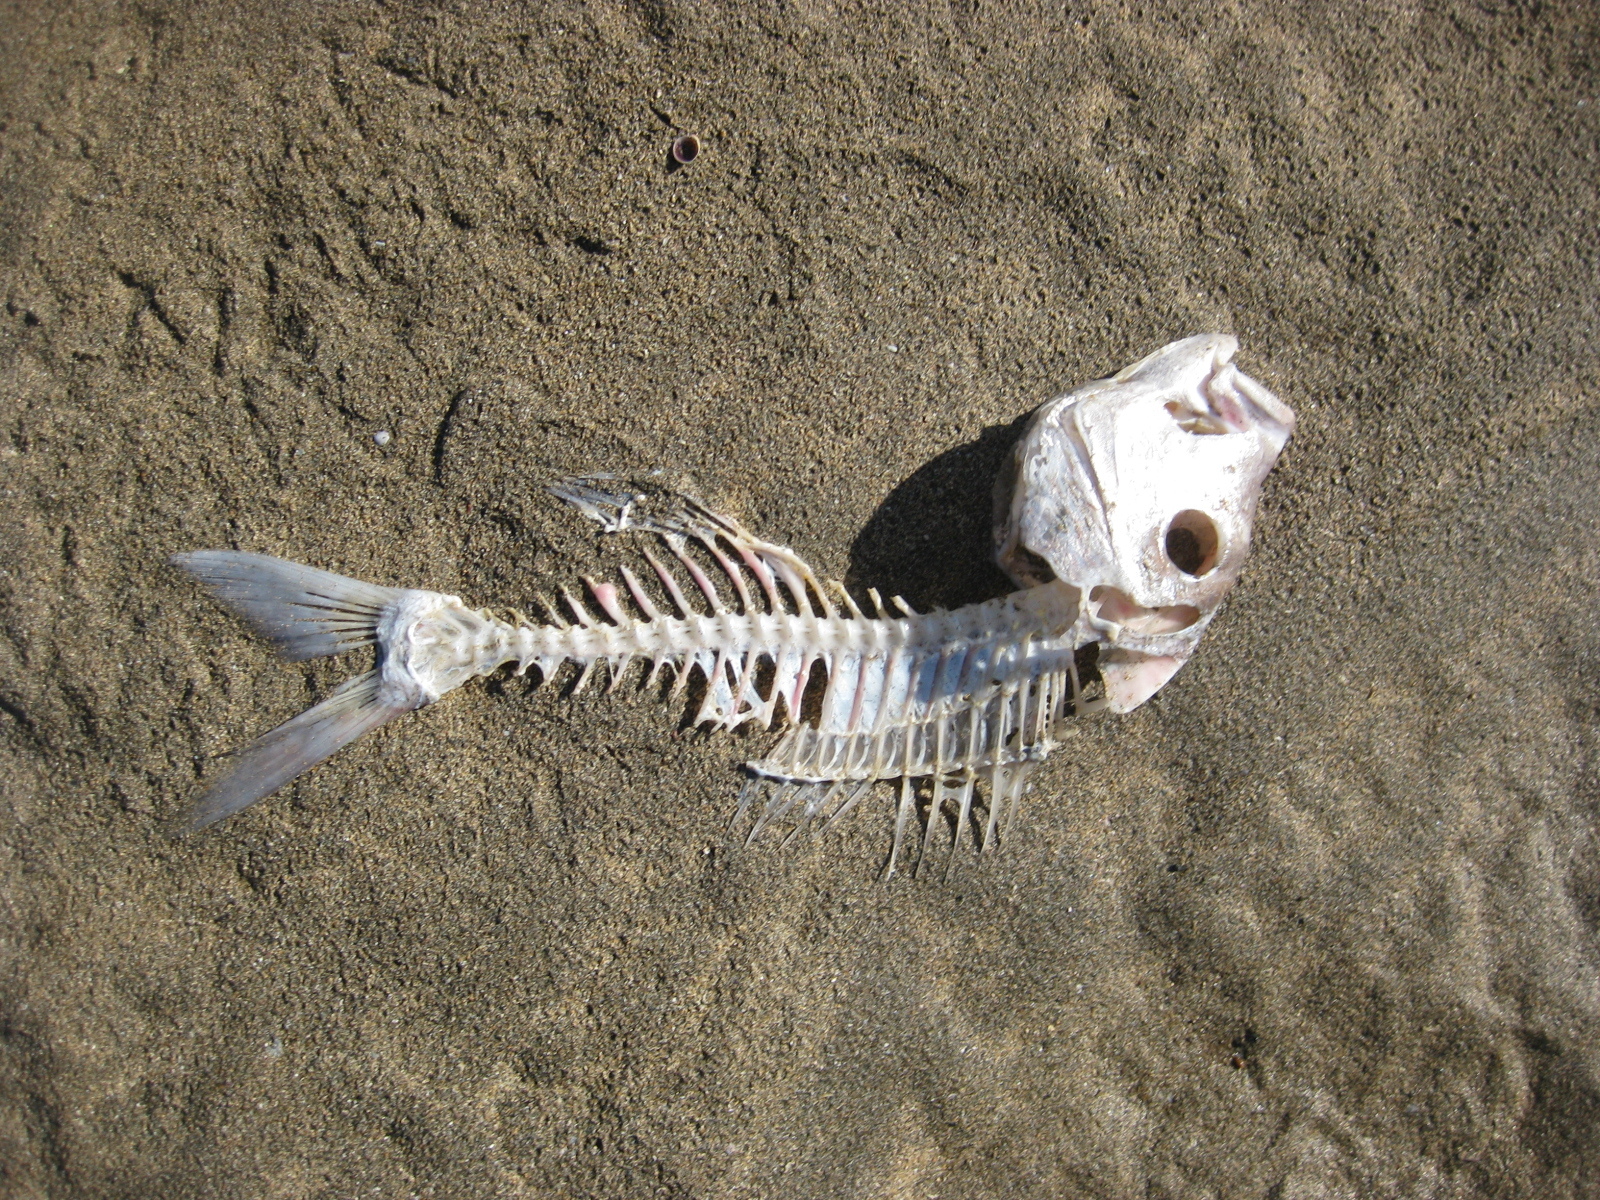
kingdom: Animalia
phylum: Chordata
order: Perciformes
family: Sparidae
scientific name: Sparidae
